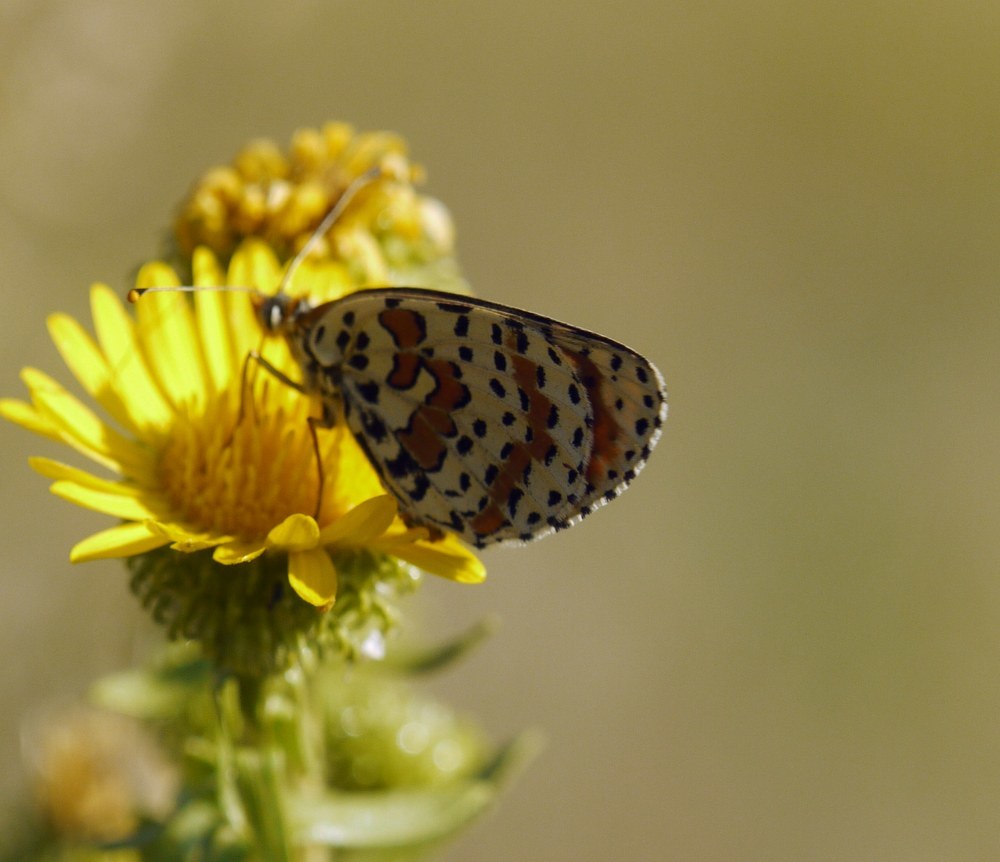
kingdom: Animalia
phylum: Arthropoda
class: Insecta
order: Lepidoptera
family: Nymphalidae
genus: Melitaea
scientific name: Melitaea didyma
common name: Spotted fritillary
